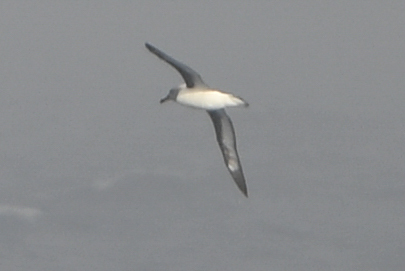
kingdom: Animalia
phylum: Chordata
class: Aves
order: Procellariiformes
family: Diomedeidae
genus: Thalassarche
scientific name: Thalassarche chrysostoma
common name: Grey-headed albatross
